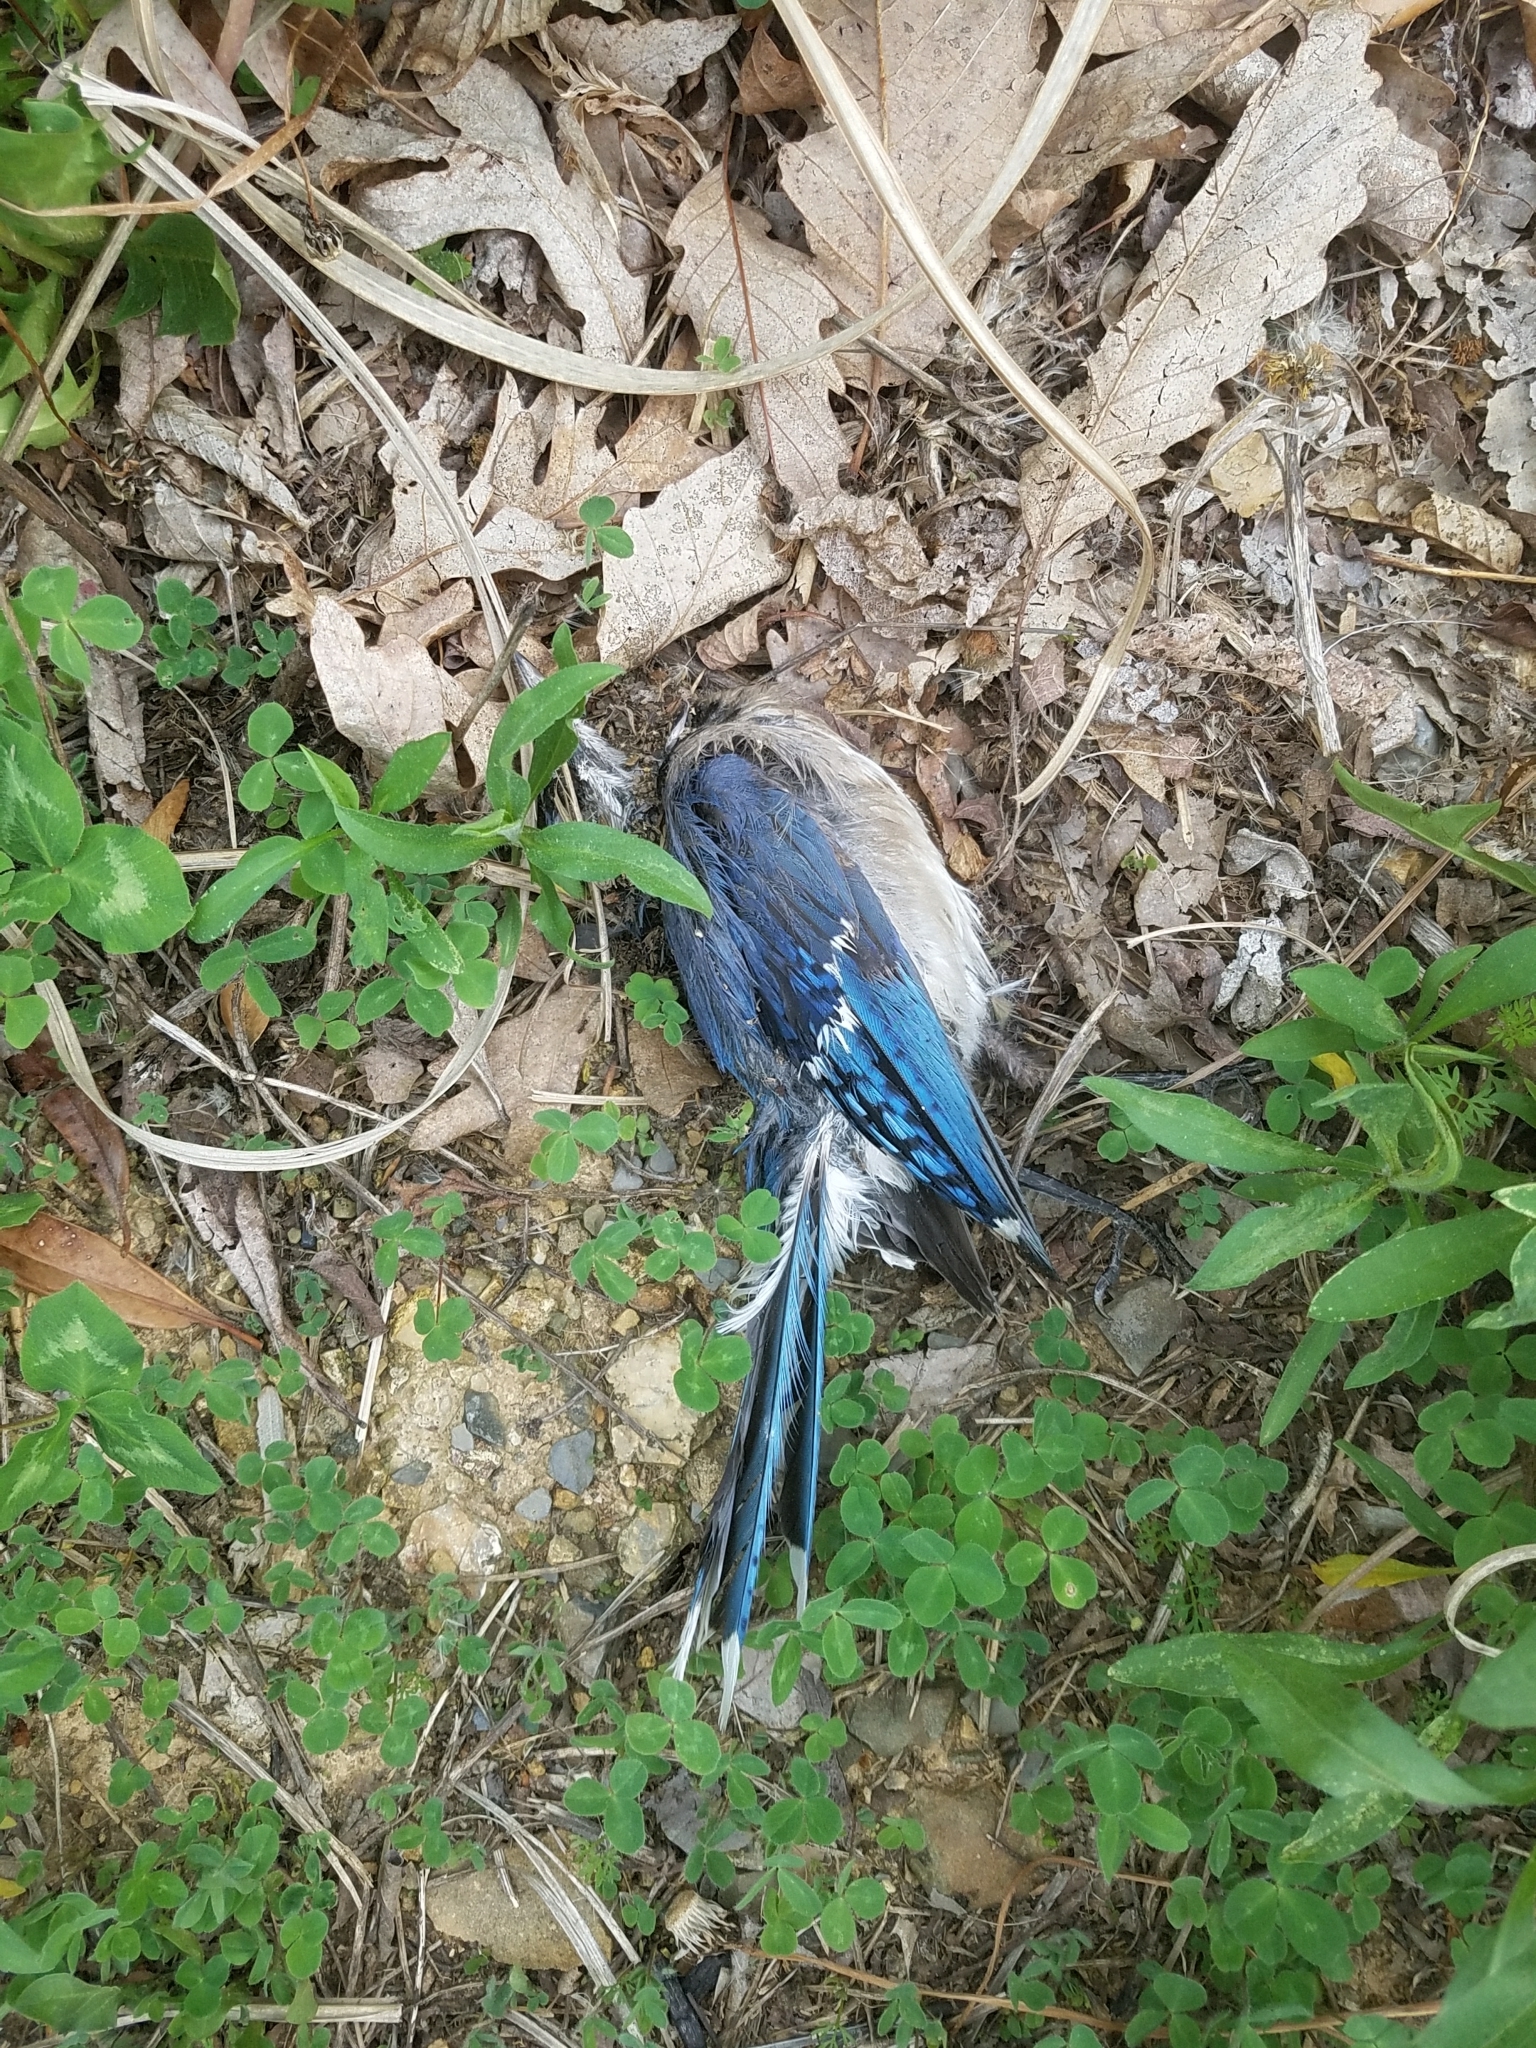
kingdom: Animalia
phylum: Chordata
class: Aves
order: Passeriformes
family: Corvidae
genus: Cyanocitta
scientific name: Cyanocitta cristata
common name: Blue jay
